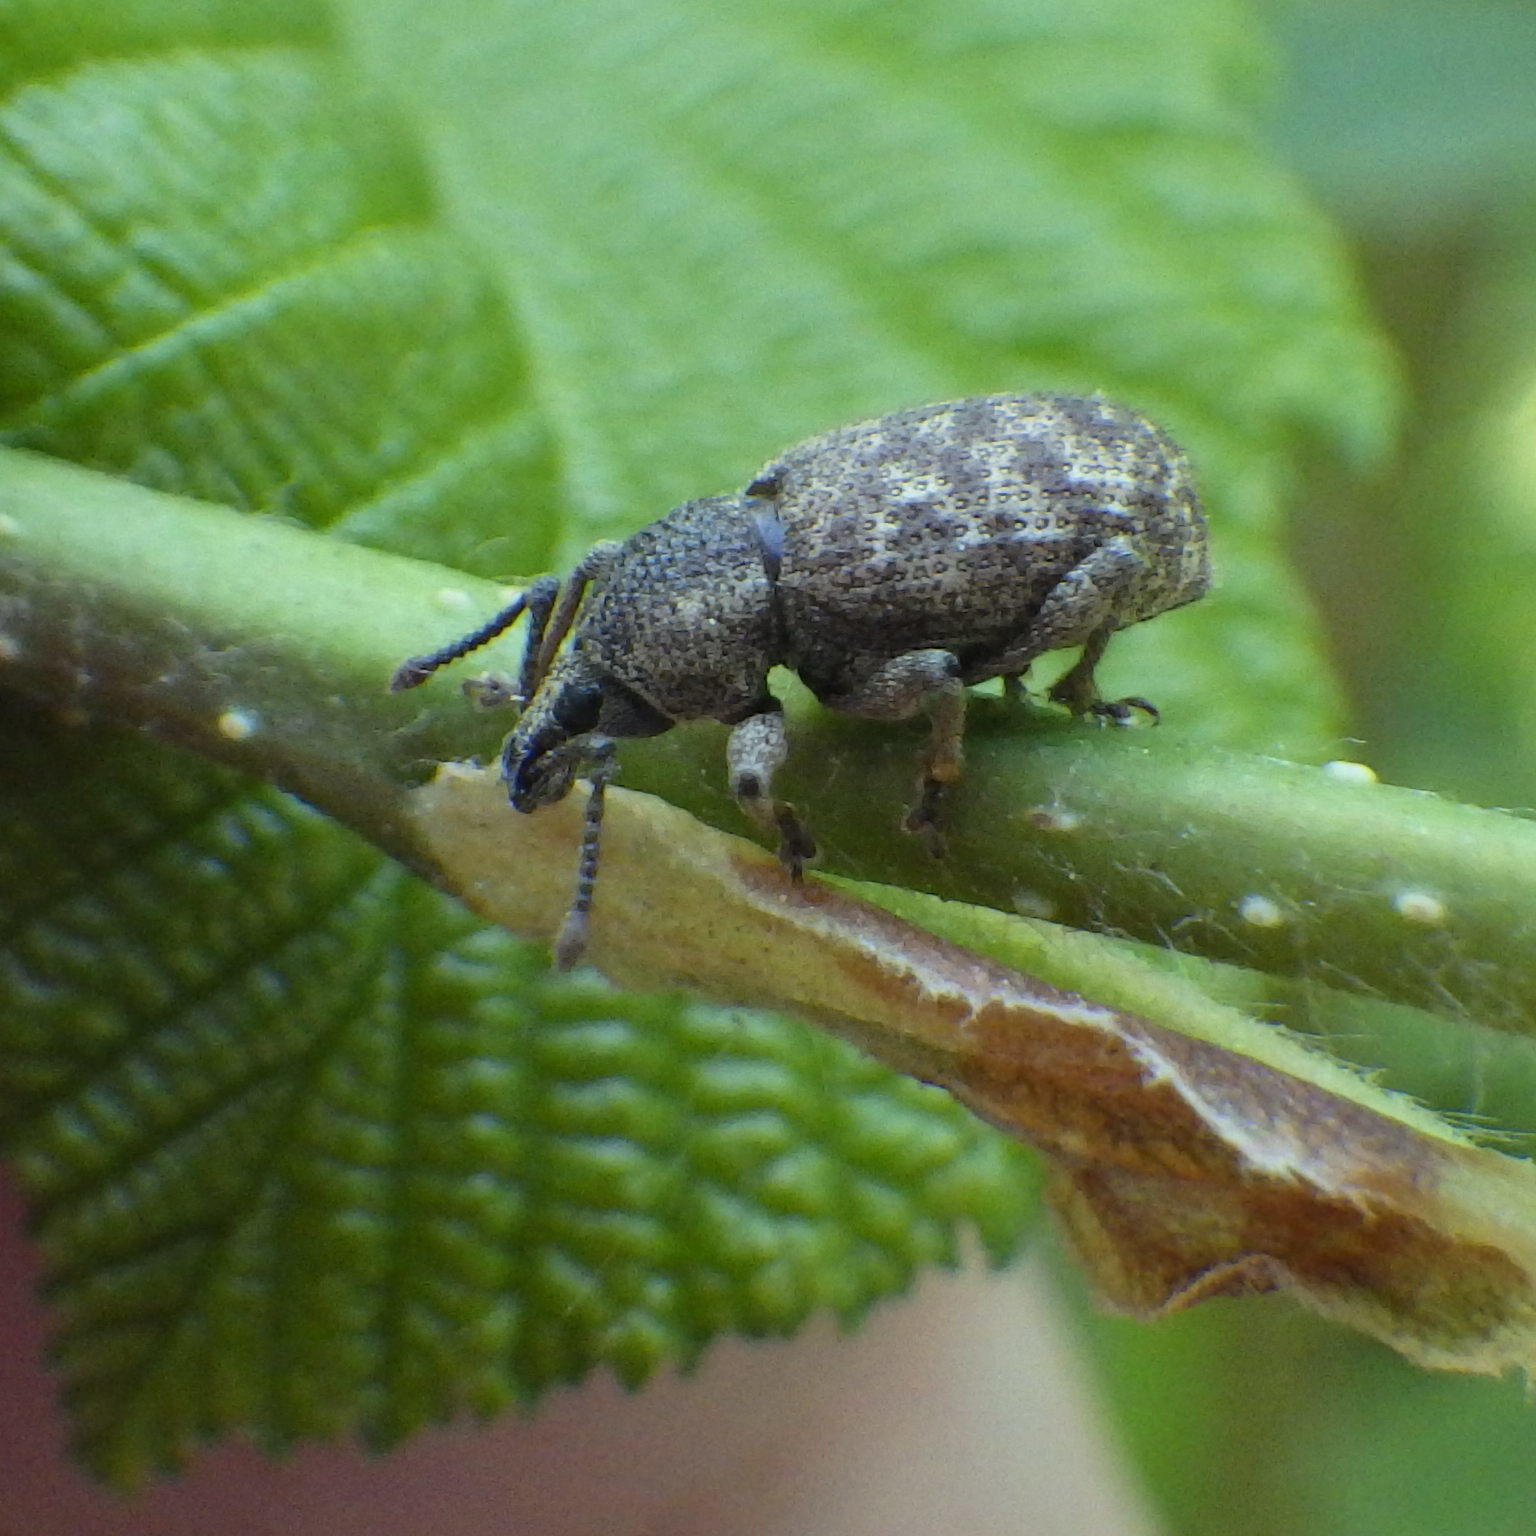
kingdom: Animalia
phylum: Arthropoda
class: Insecta
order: Coleoptera
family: Curculionidae
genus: Otiorhynchus
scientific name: Otiorhynchus singularis
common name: Clay-coloured weevil
